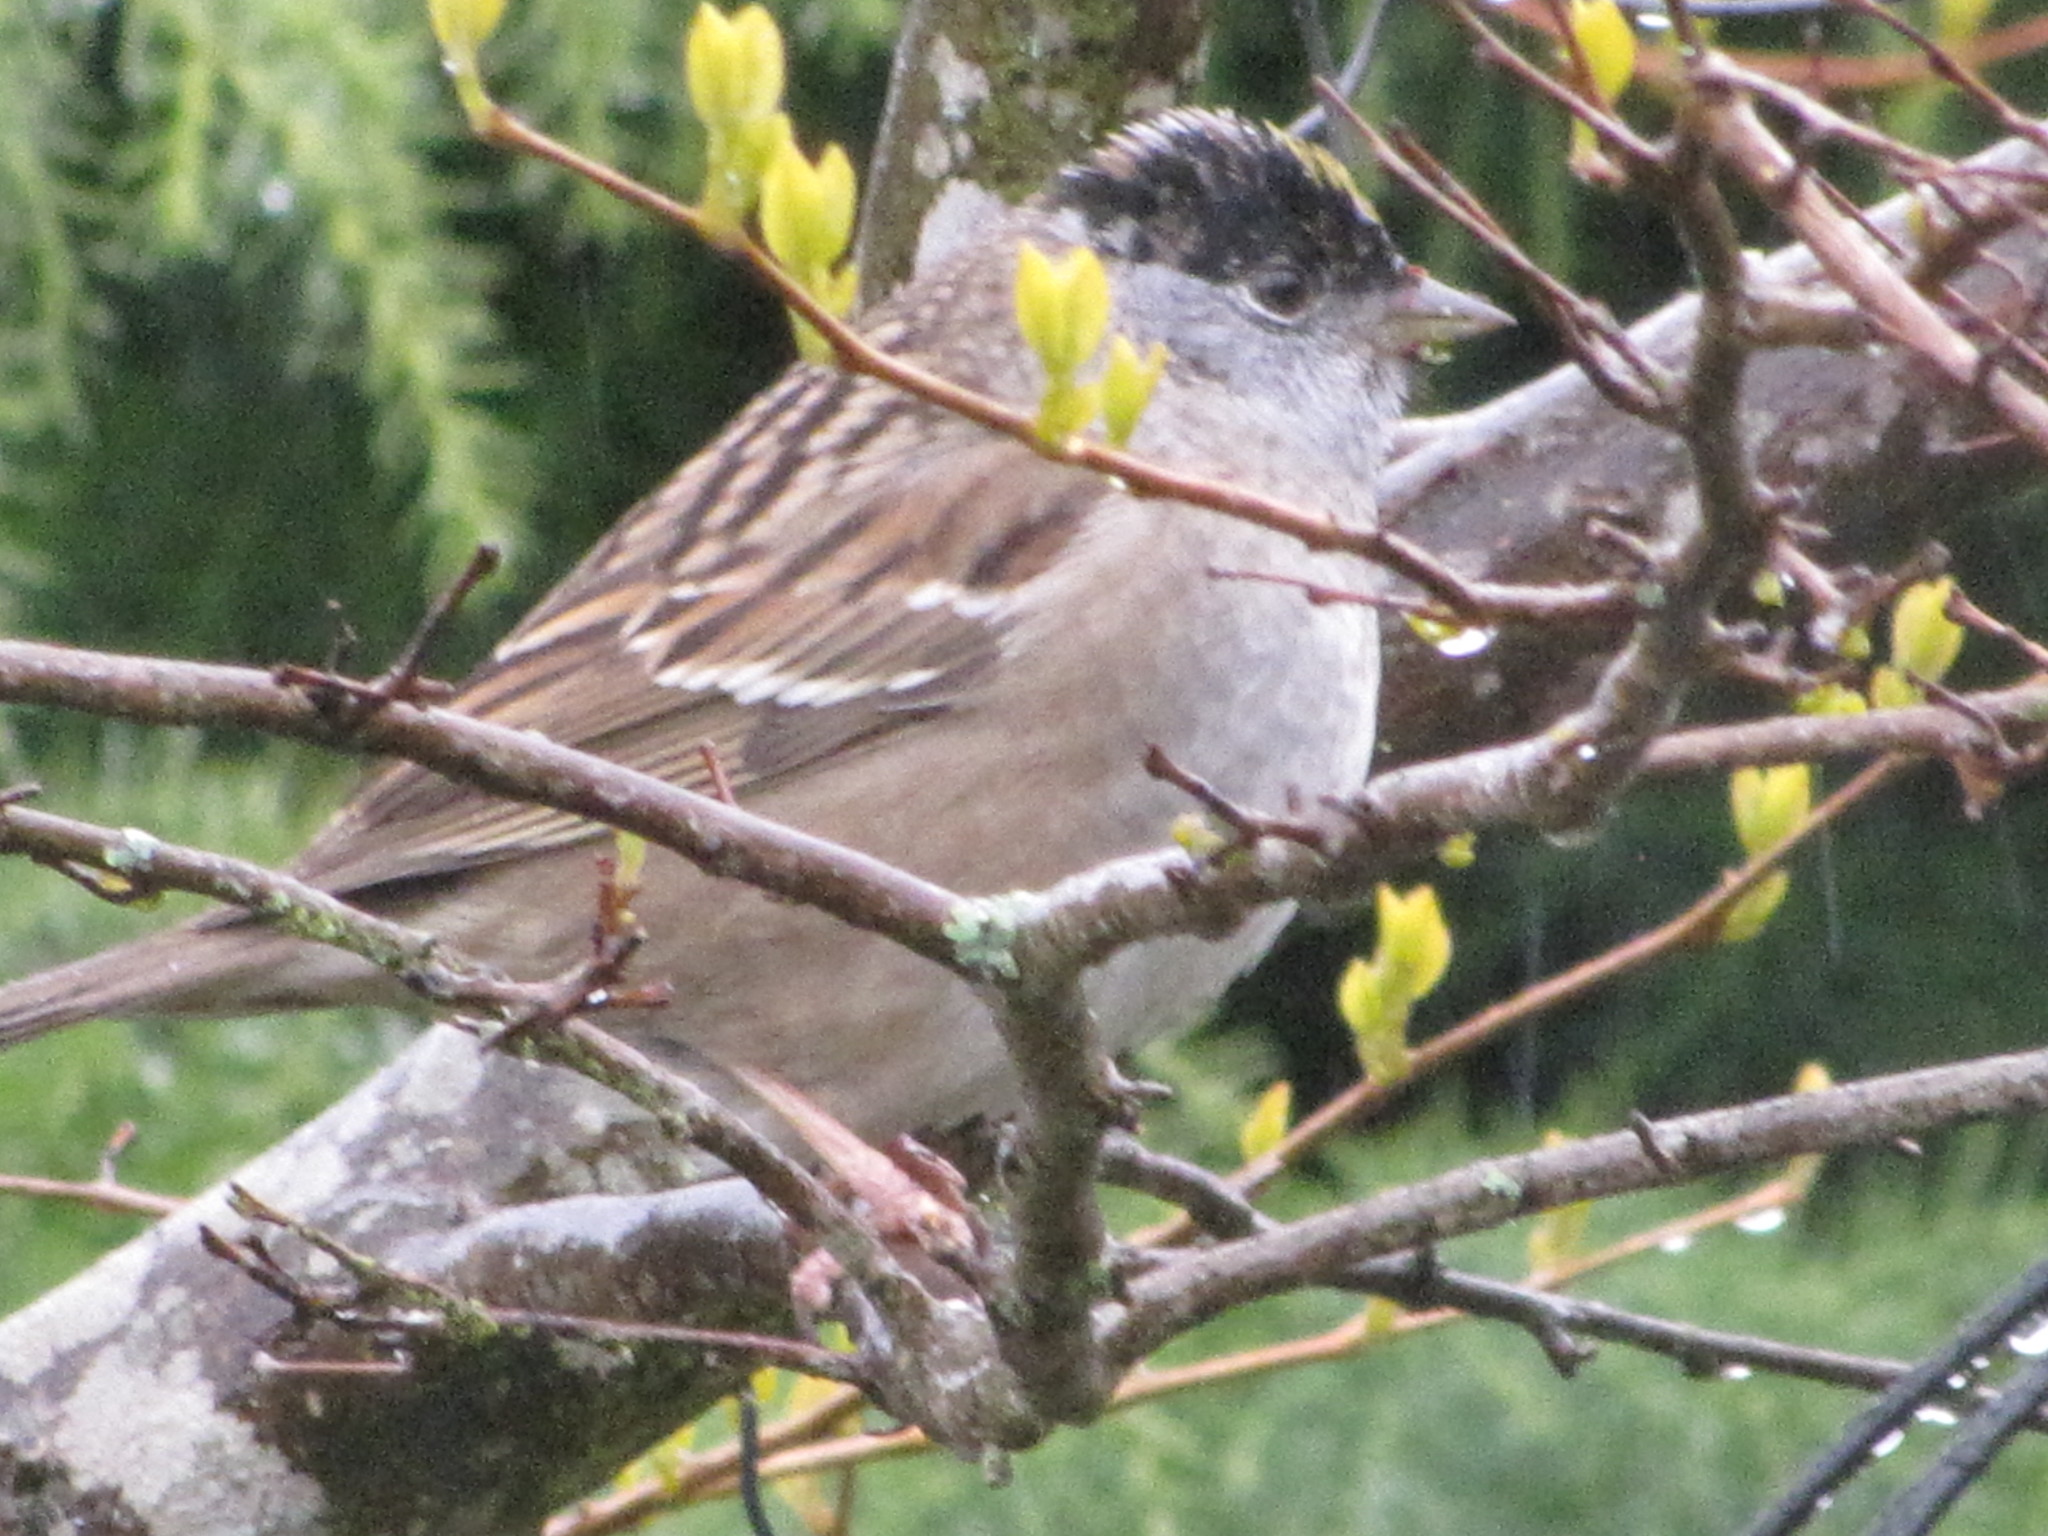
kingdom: Animalia
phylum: Chordata
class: Aves
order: Passeriformes
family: Passerellidae
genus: Zonotrichia
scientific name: Zonotrichia atricapilla
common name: Golden-crowned sparrow
